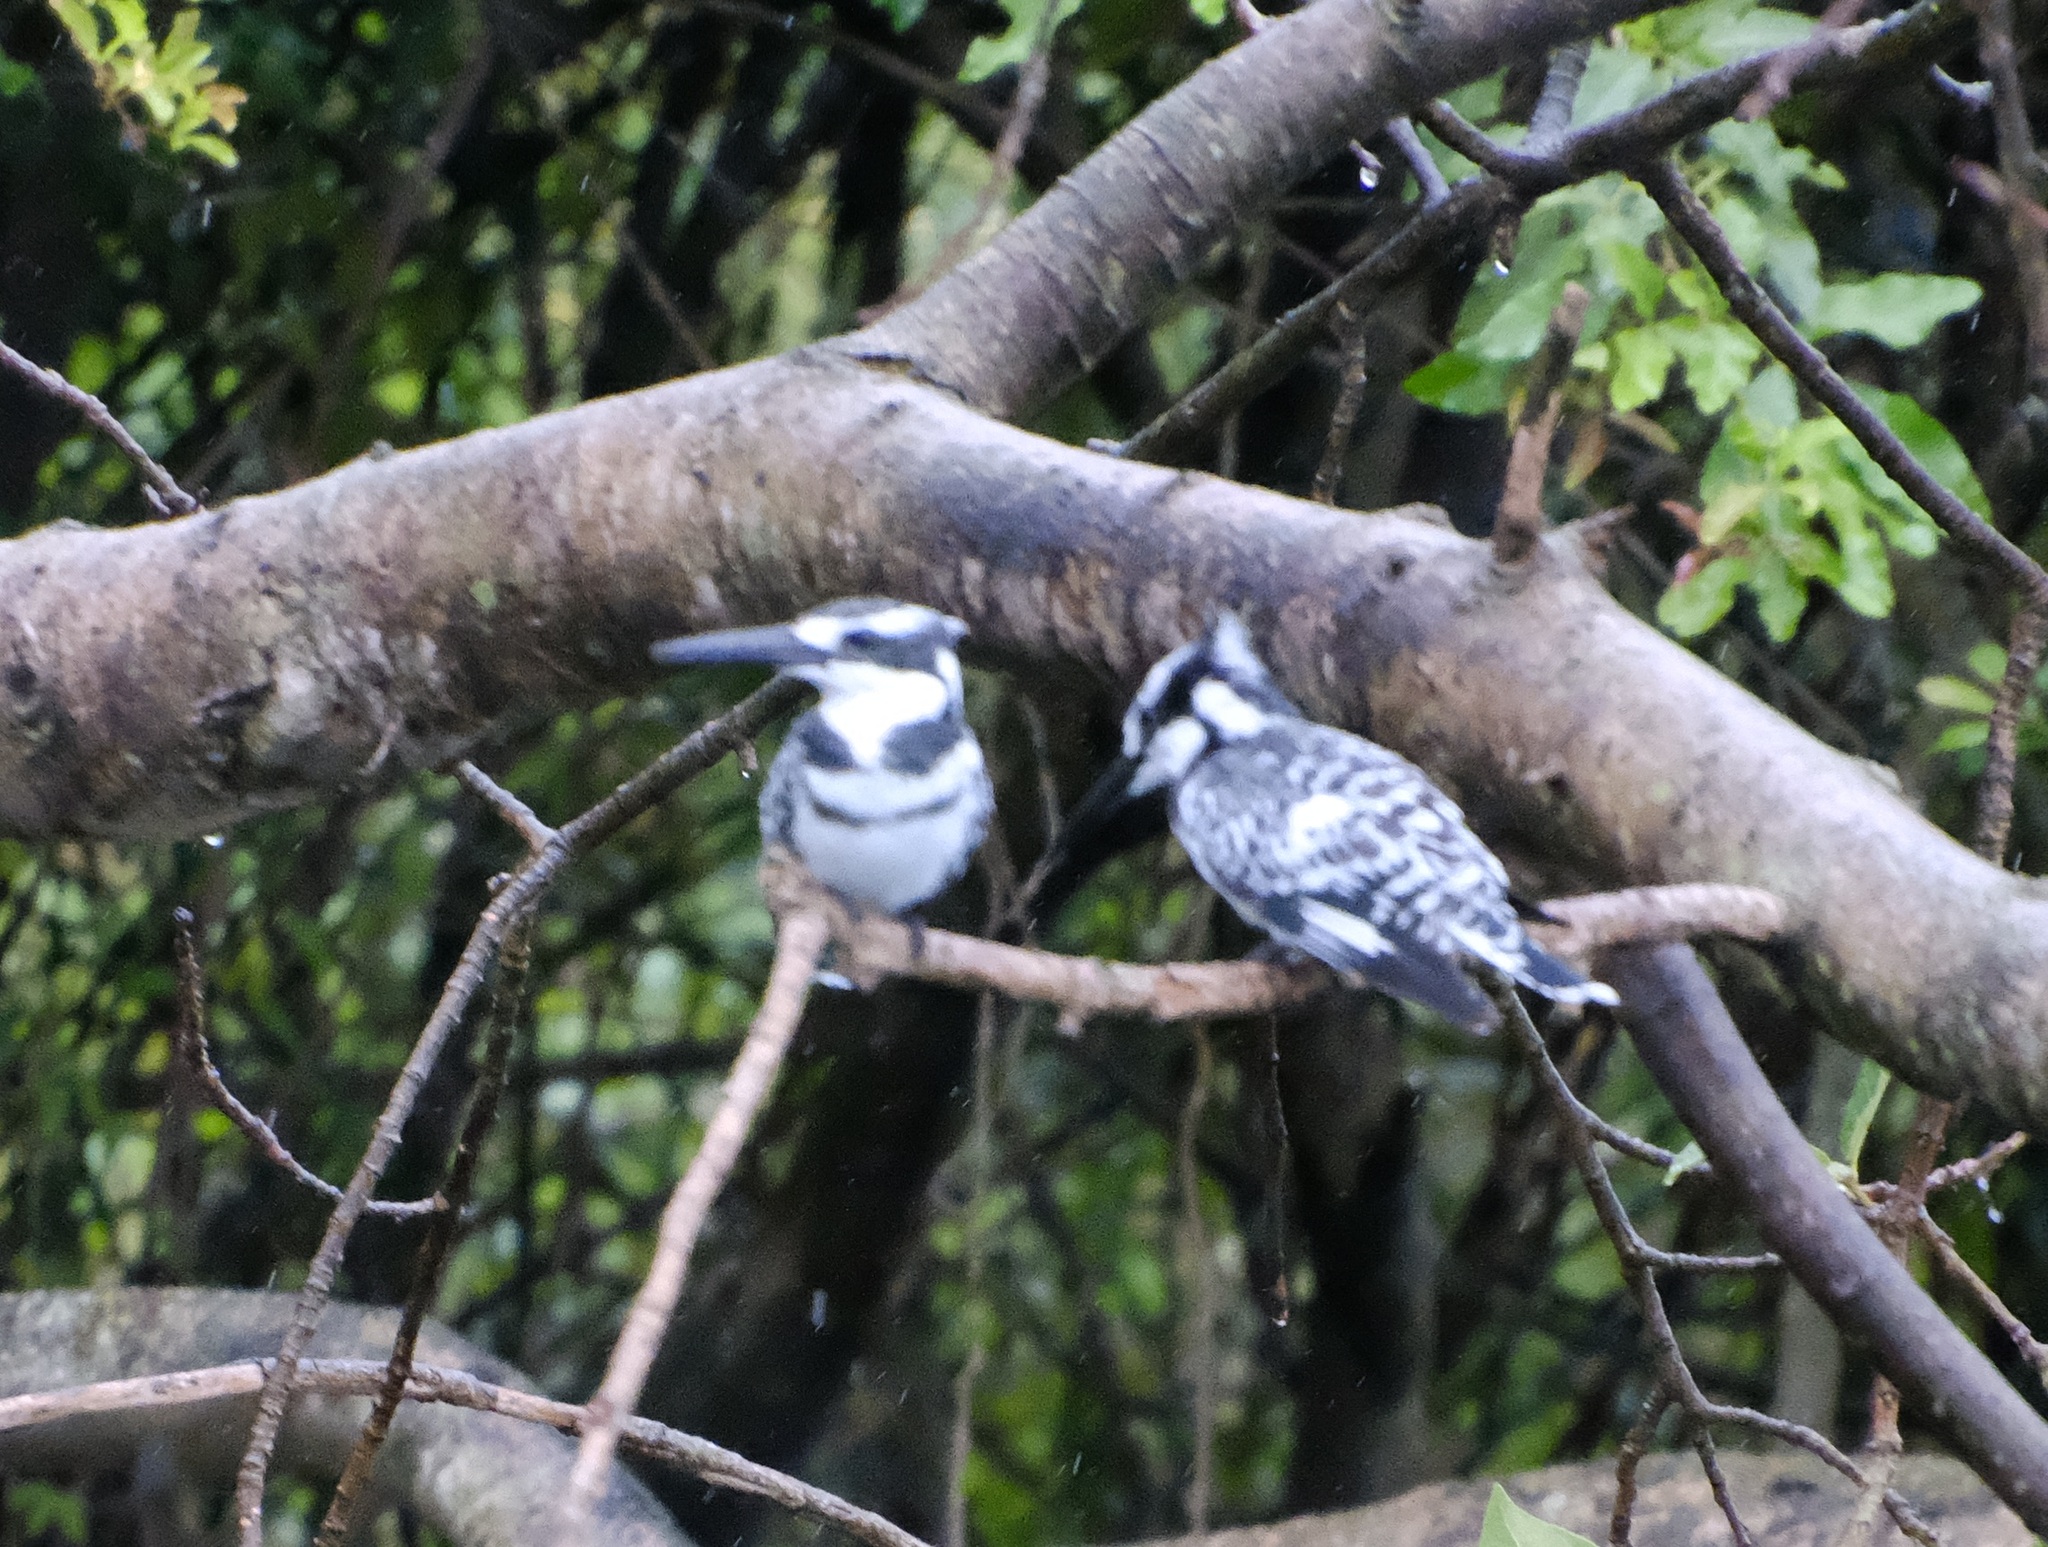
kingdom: Animalia
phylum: Chordata
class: Aves
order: Coraciiformes
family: Alcedinidae
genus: Ceryle
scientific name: Ceryle rudis
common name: Pied kingfisher
